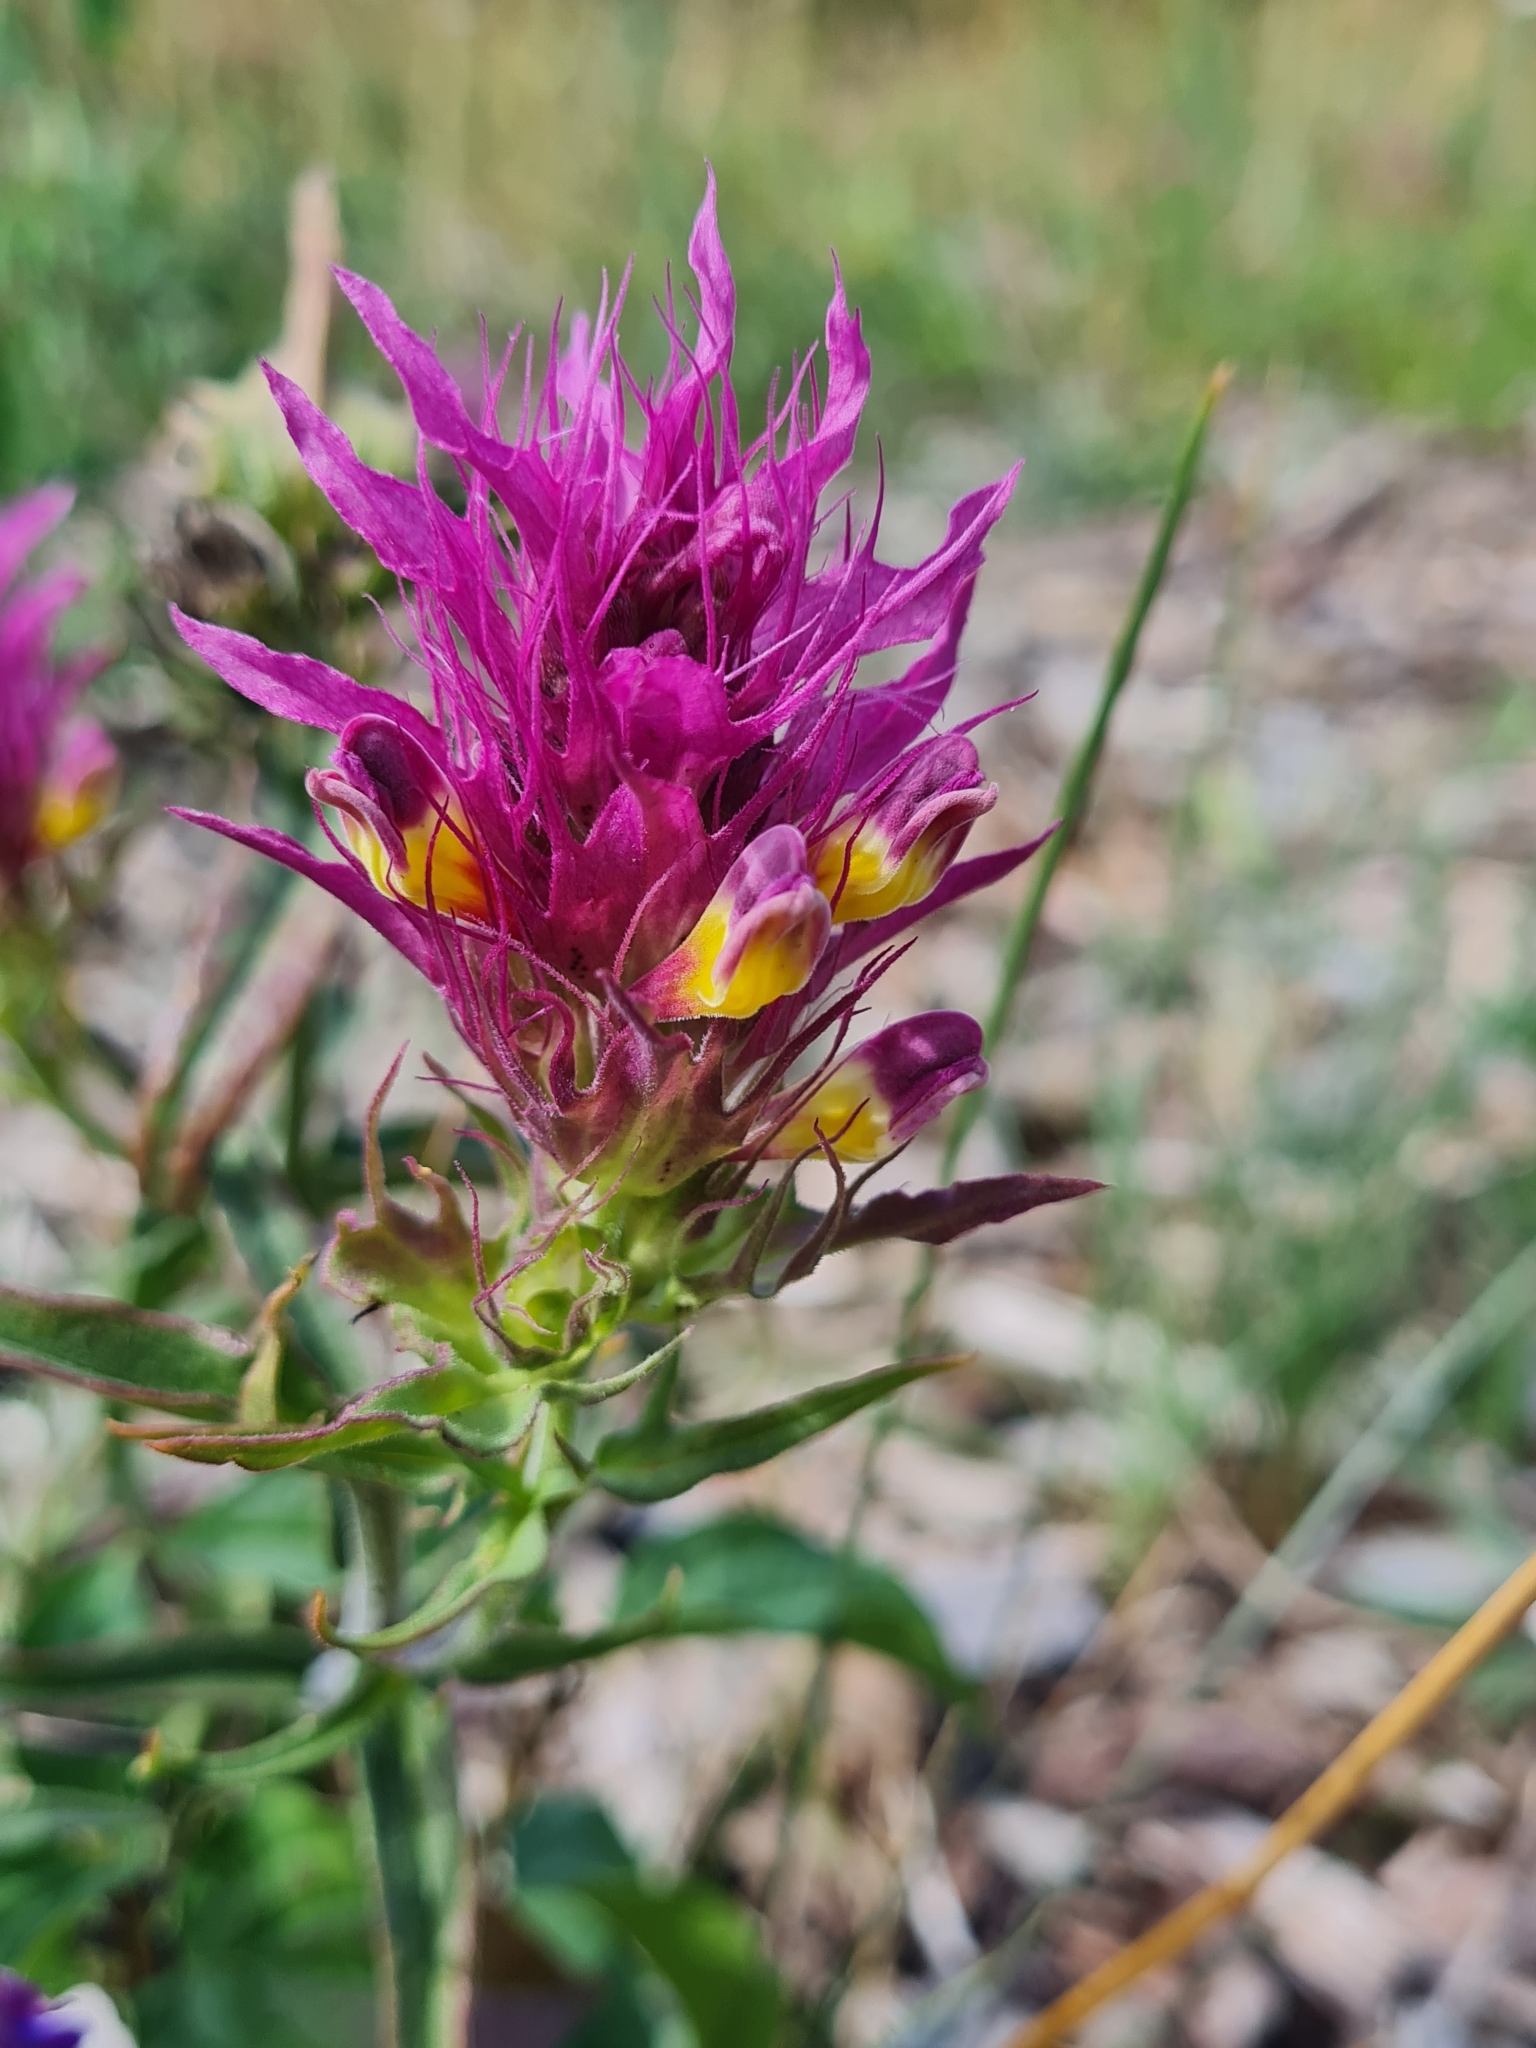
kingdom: Plantae
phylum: Tracheophyta
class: Magnoliopsida
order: Lamiales
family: Orobanchaceae
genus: Melampyrum
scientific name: Melampyrum arvense
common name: Field cow-wheat
